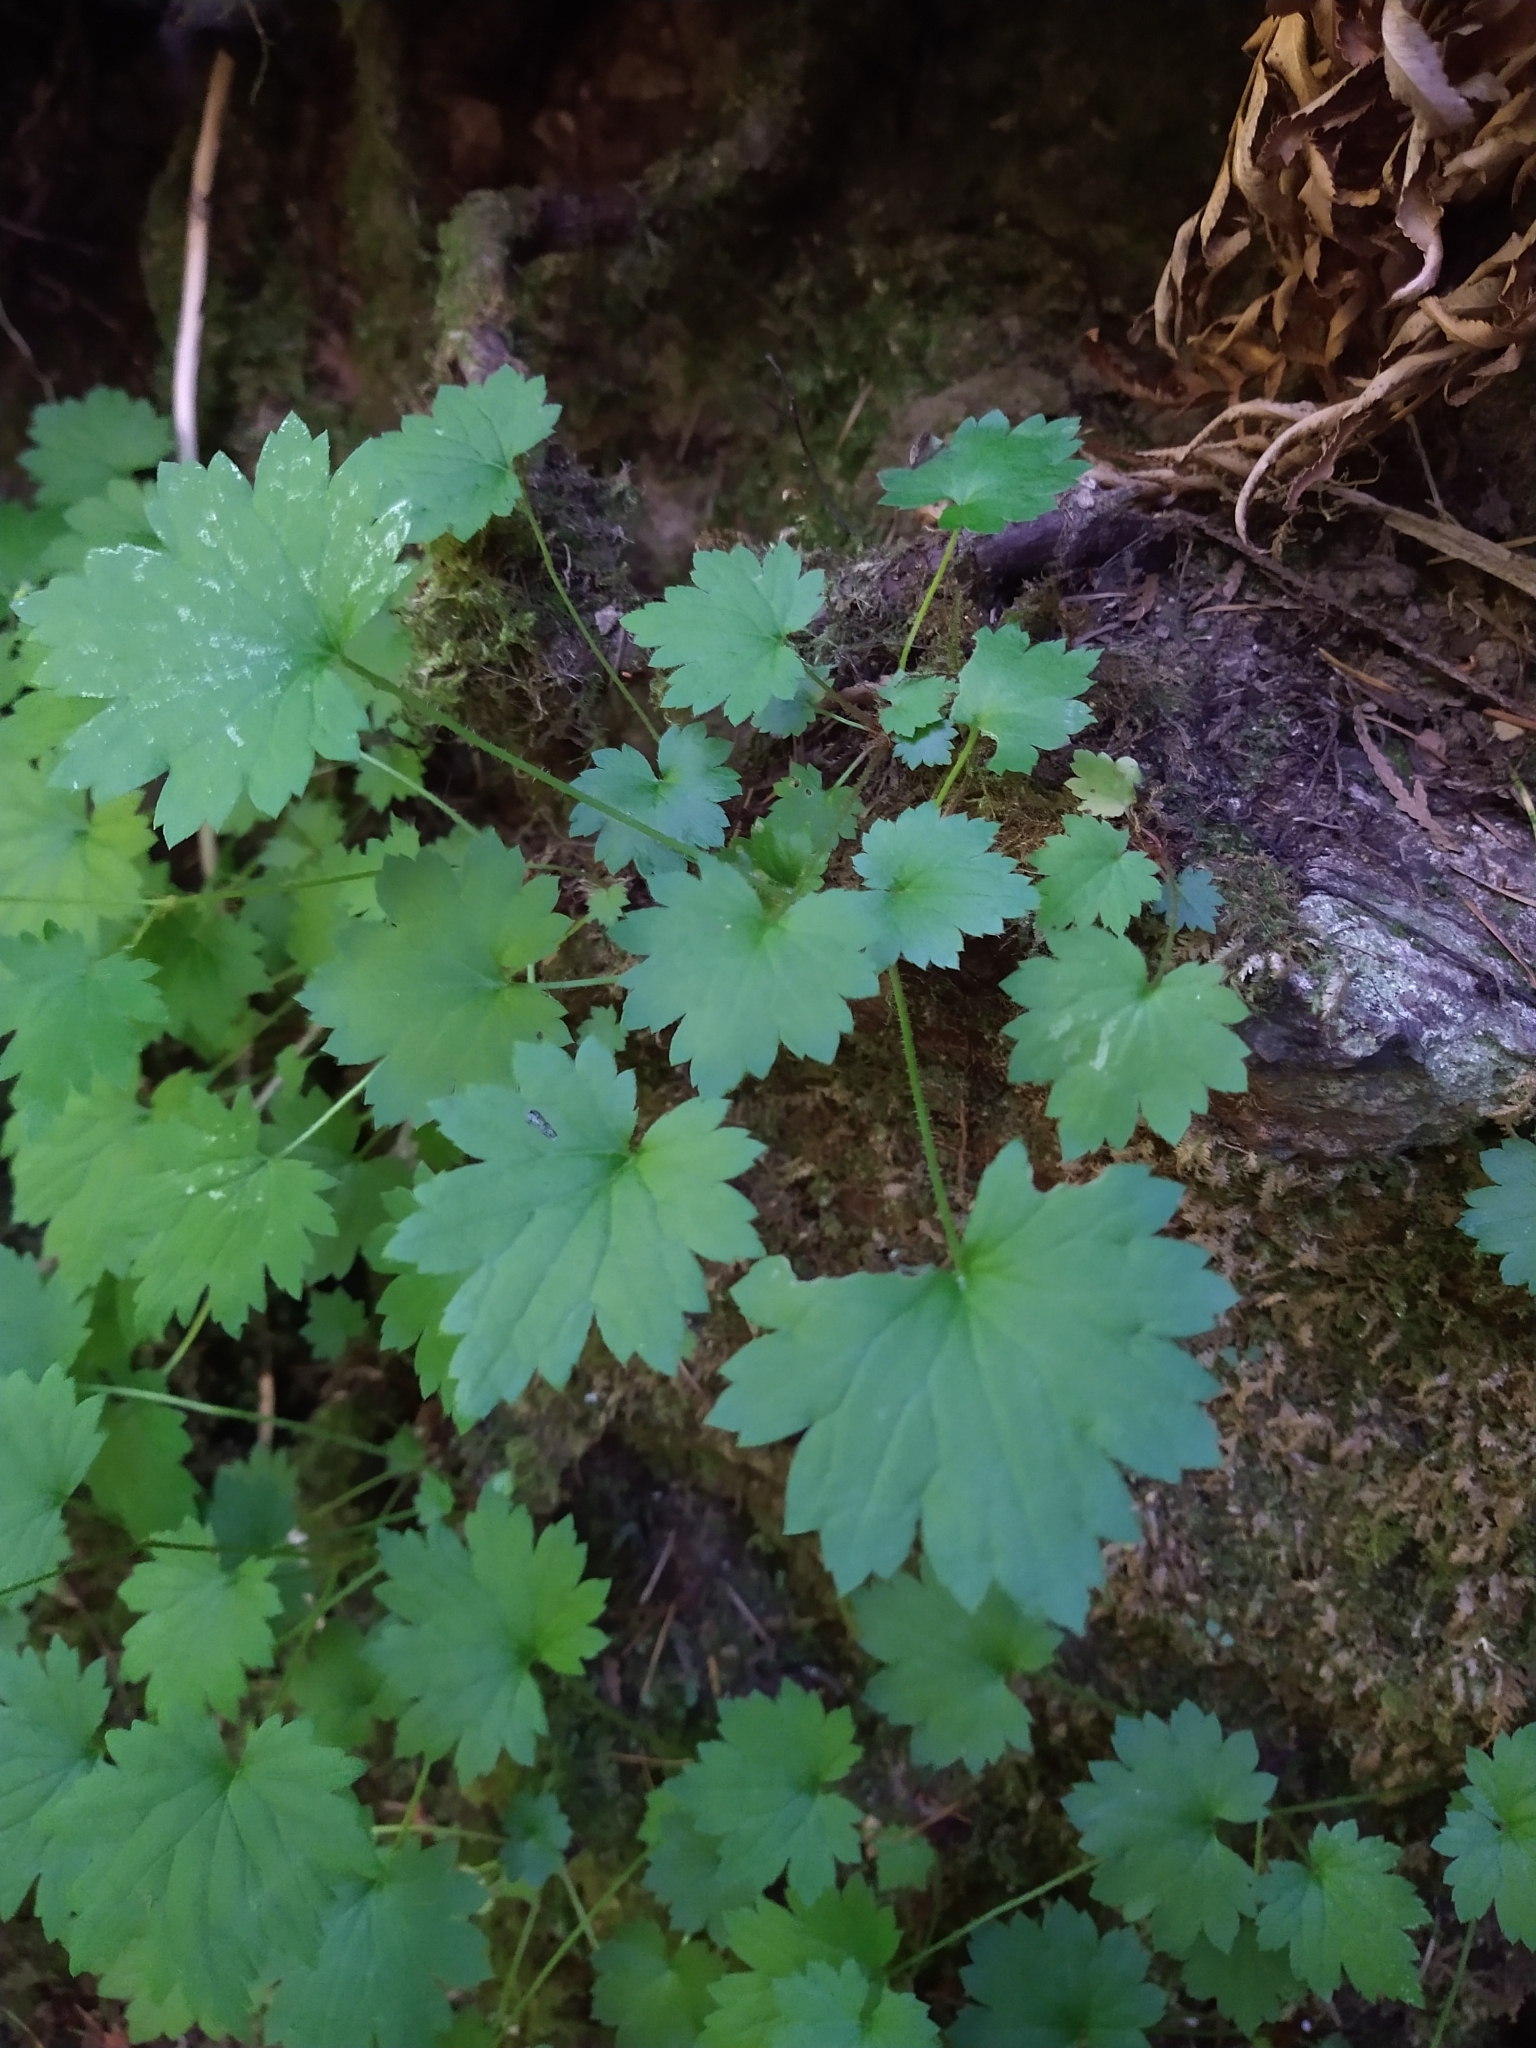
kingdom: Plantae
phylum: Tracheophyta
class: Magnoliopsida
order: Saxifragales
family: Saxifragaceae
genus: Boykinia
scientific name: Boykinia occidentalis
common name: Coast boykinia
